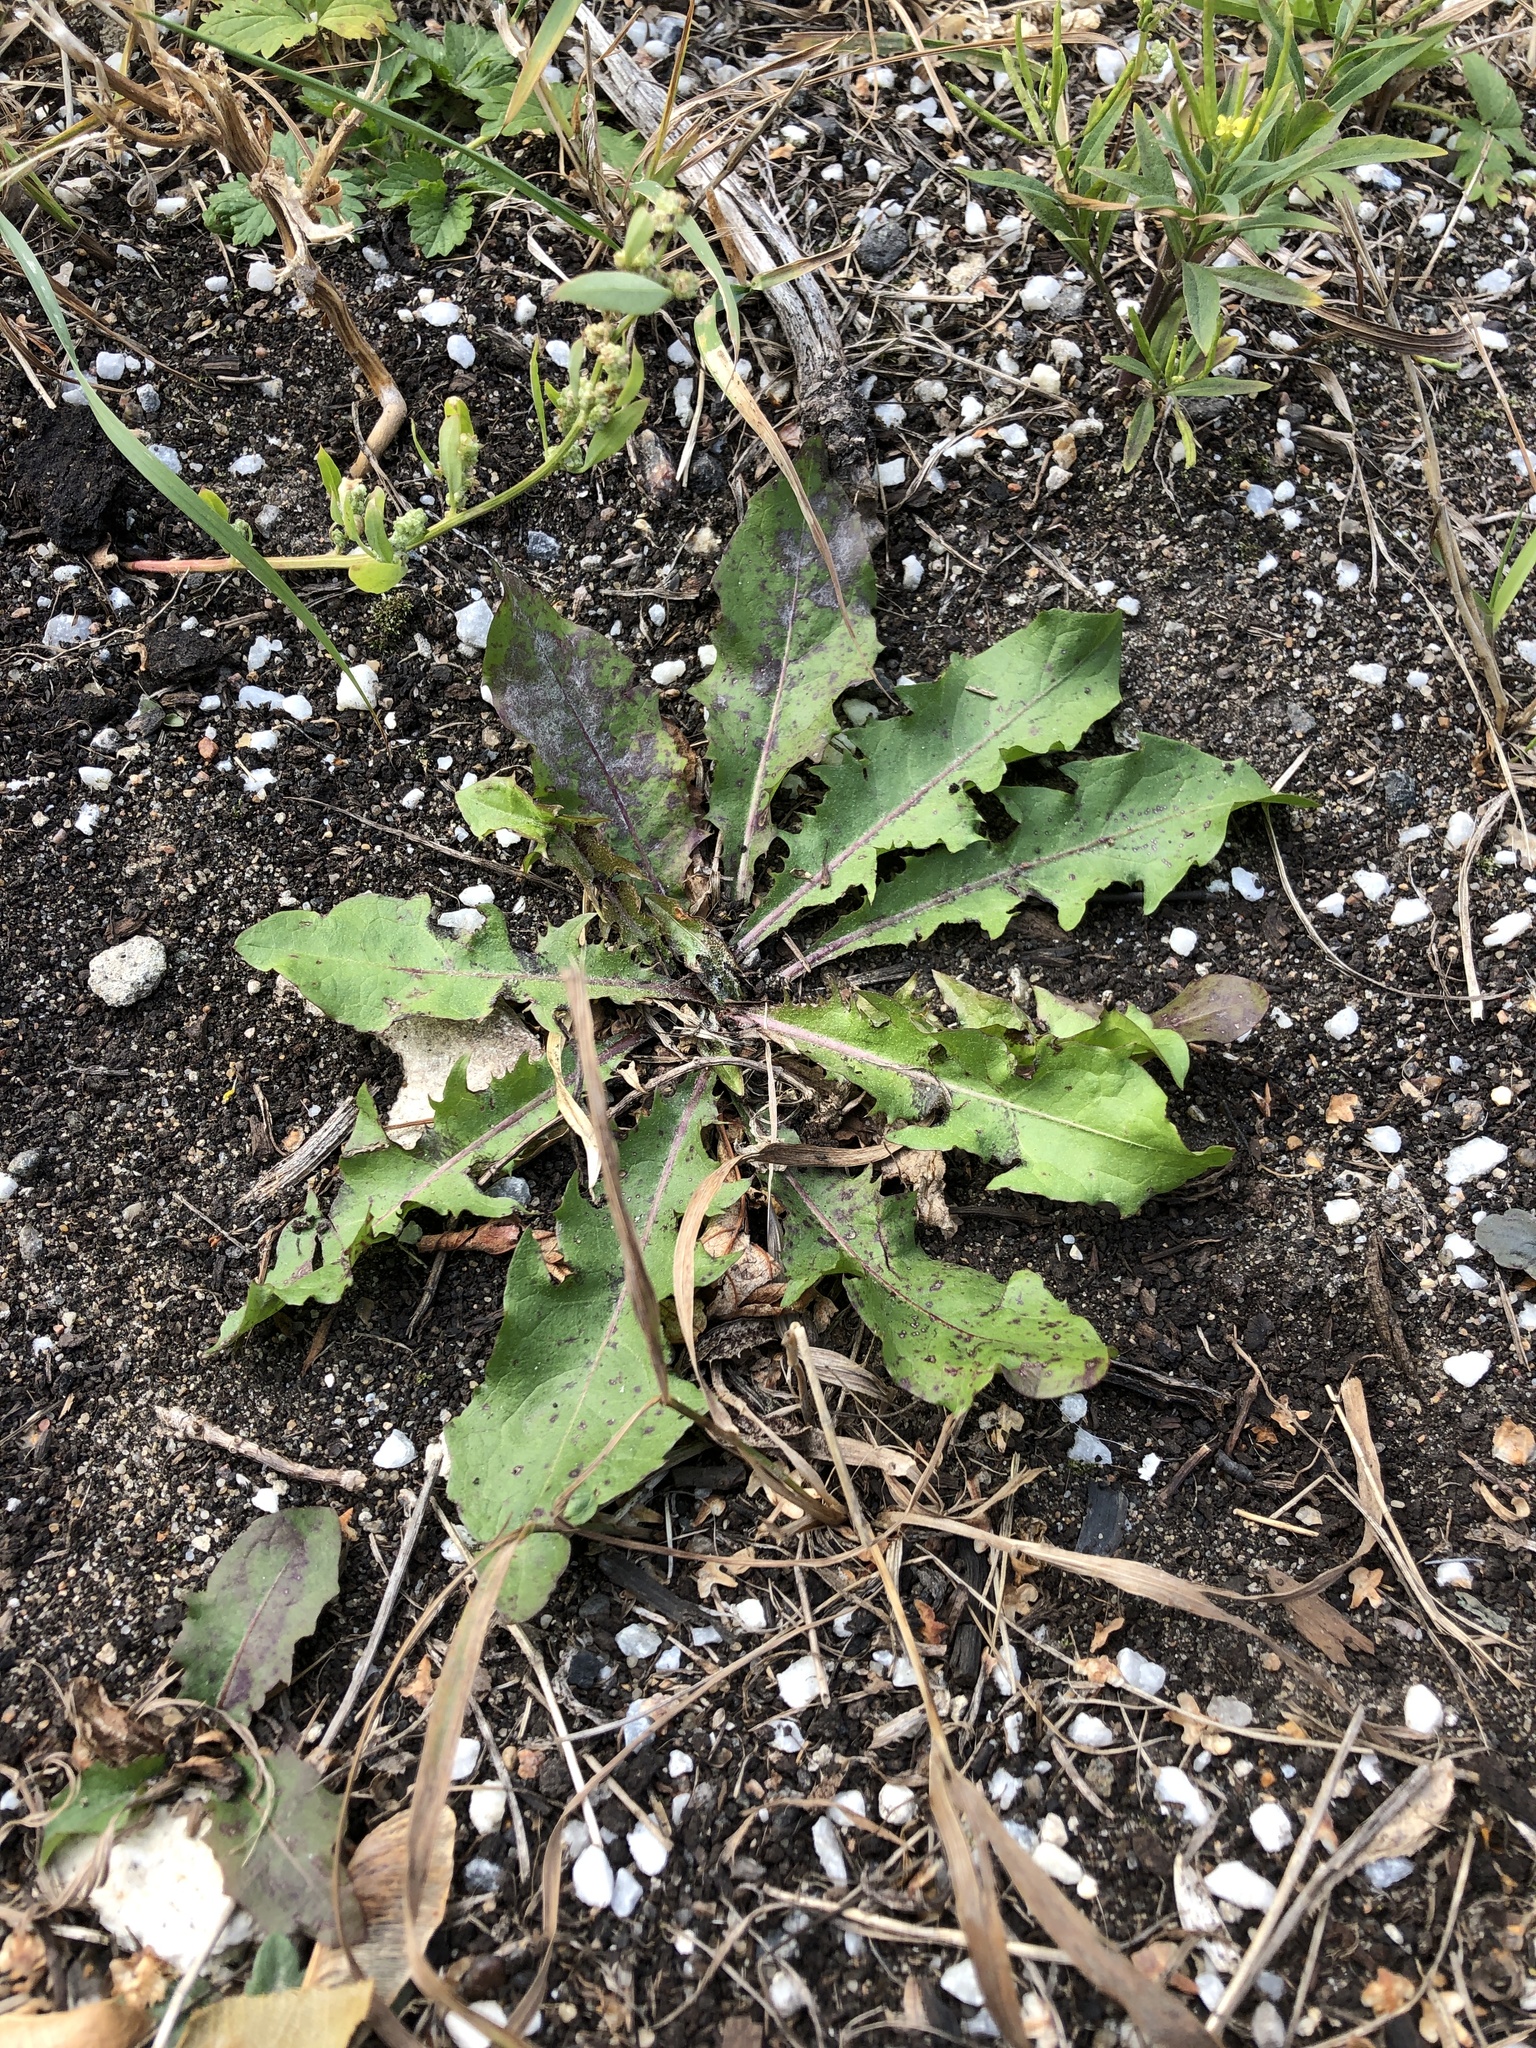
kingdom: Plantae
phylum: Tracheophyta
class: Magnoliopsida
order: Asterales
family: Asteraceae
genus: Taraxacum
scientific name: Taraxacum officinale
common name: Common dandelion
